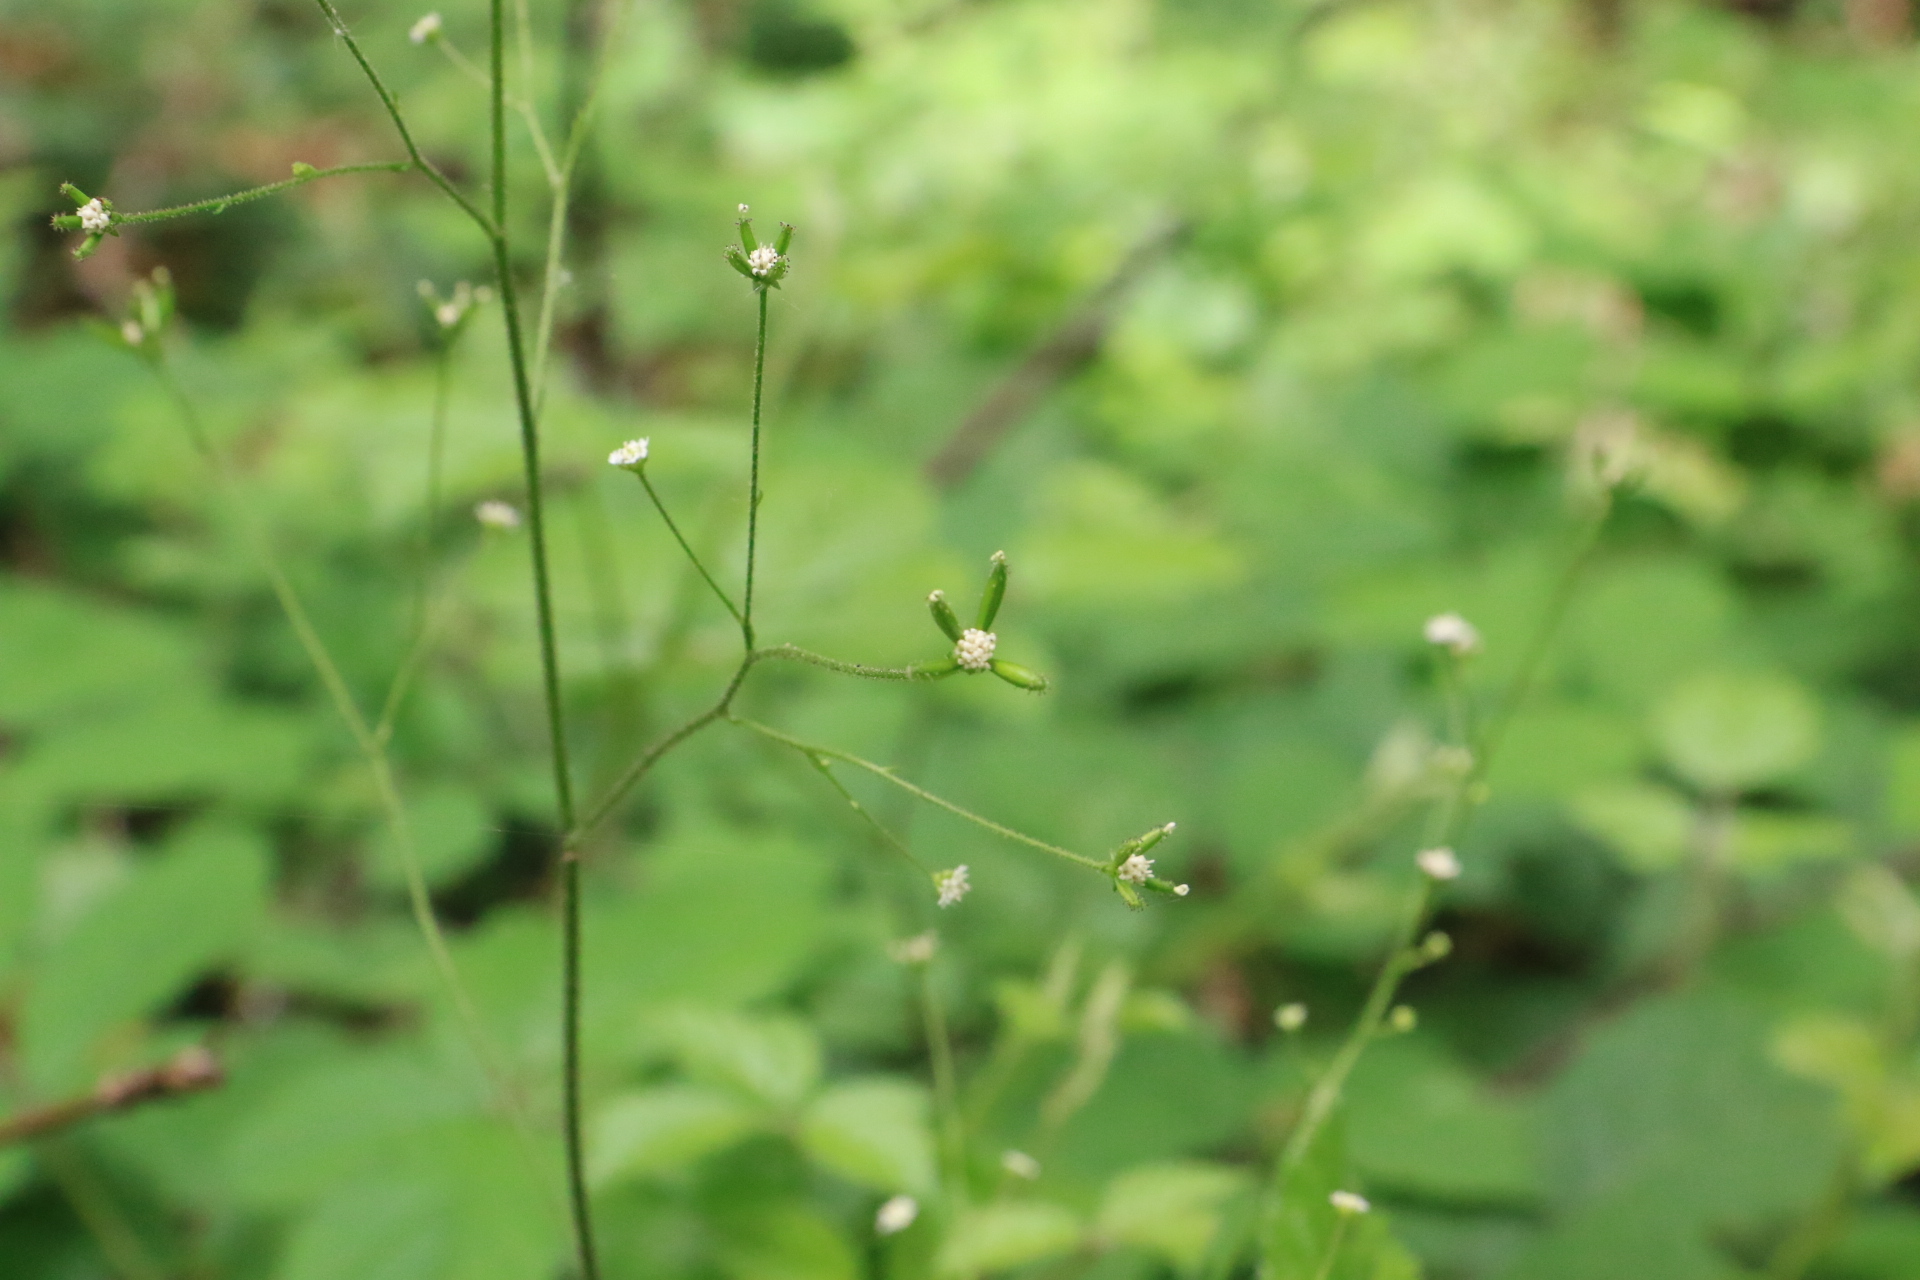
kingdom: Plantae
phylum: Tracheophyta
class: Magnoliopsida
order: Asterales
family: Asteraceae
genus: Adenocaulon
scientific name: Adenocaulon bicolor
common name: Trailplant
